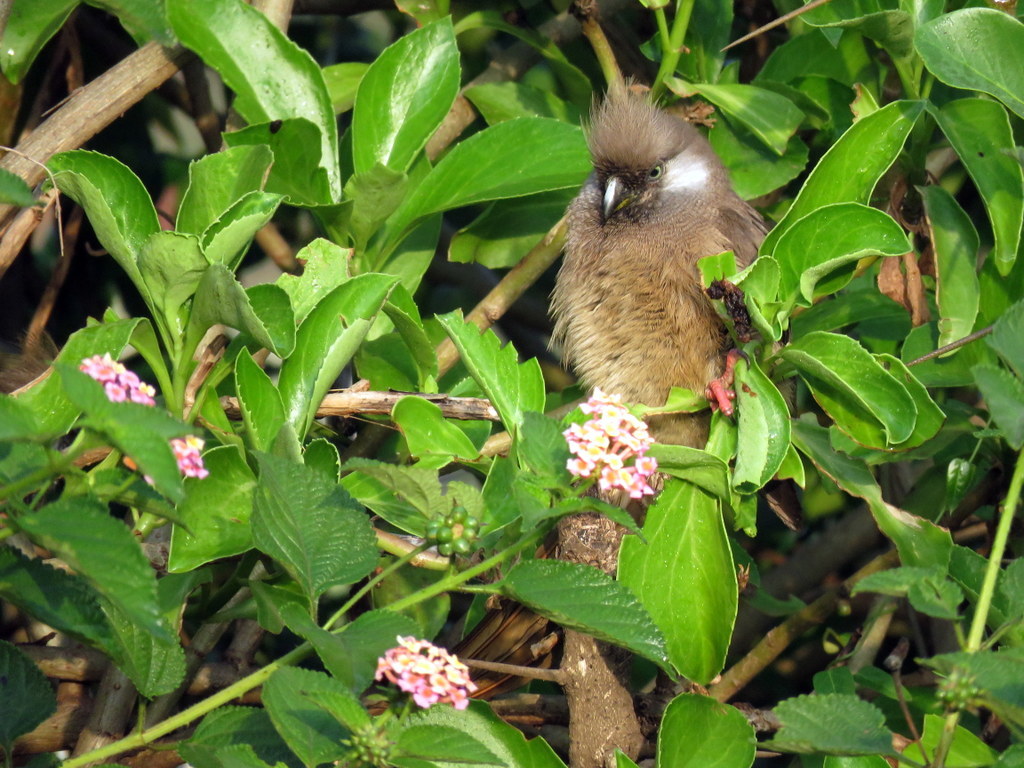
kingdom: Animalia
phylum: Chordata
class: Aves
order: Coliiformes
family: Coliidae
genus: Colius
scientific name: Colius striatus
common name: Speckled mousebird
